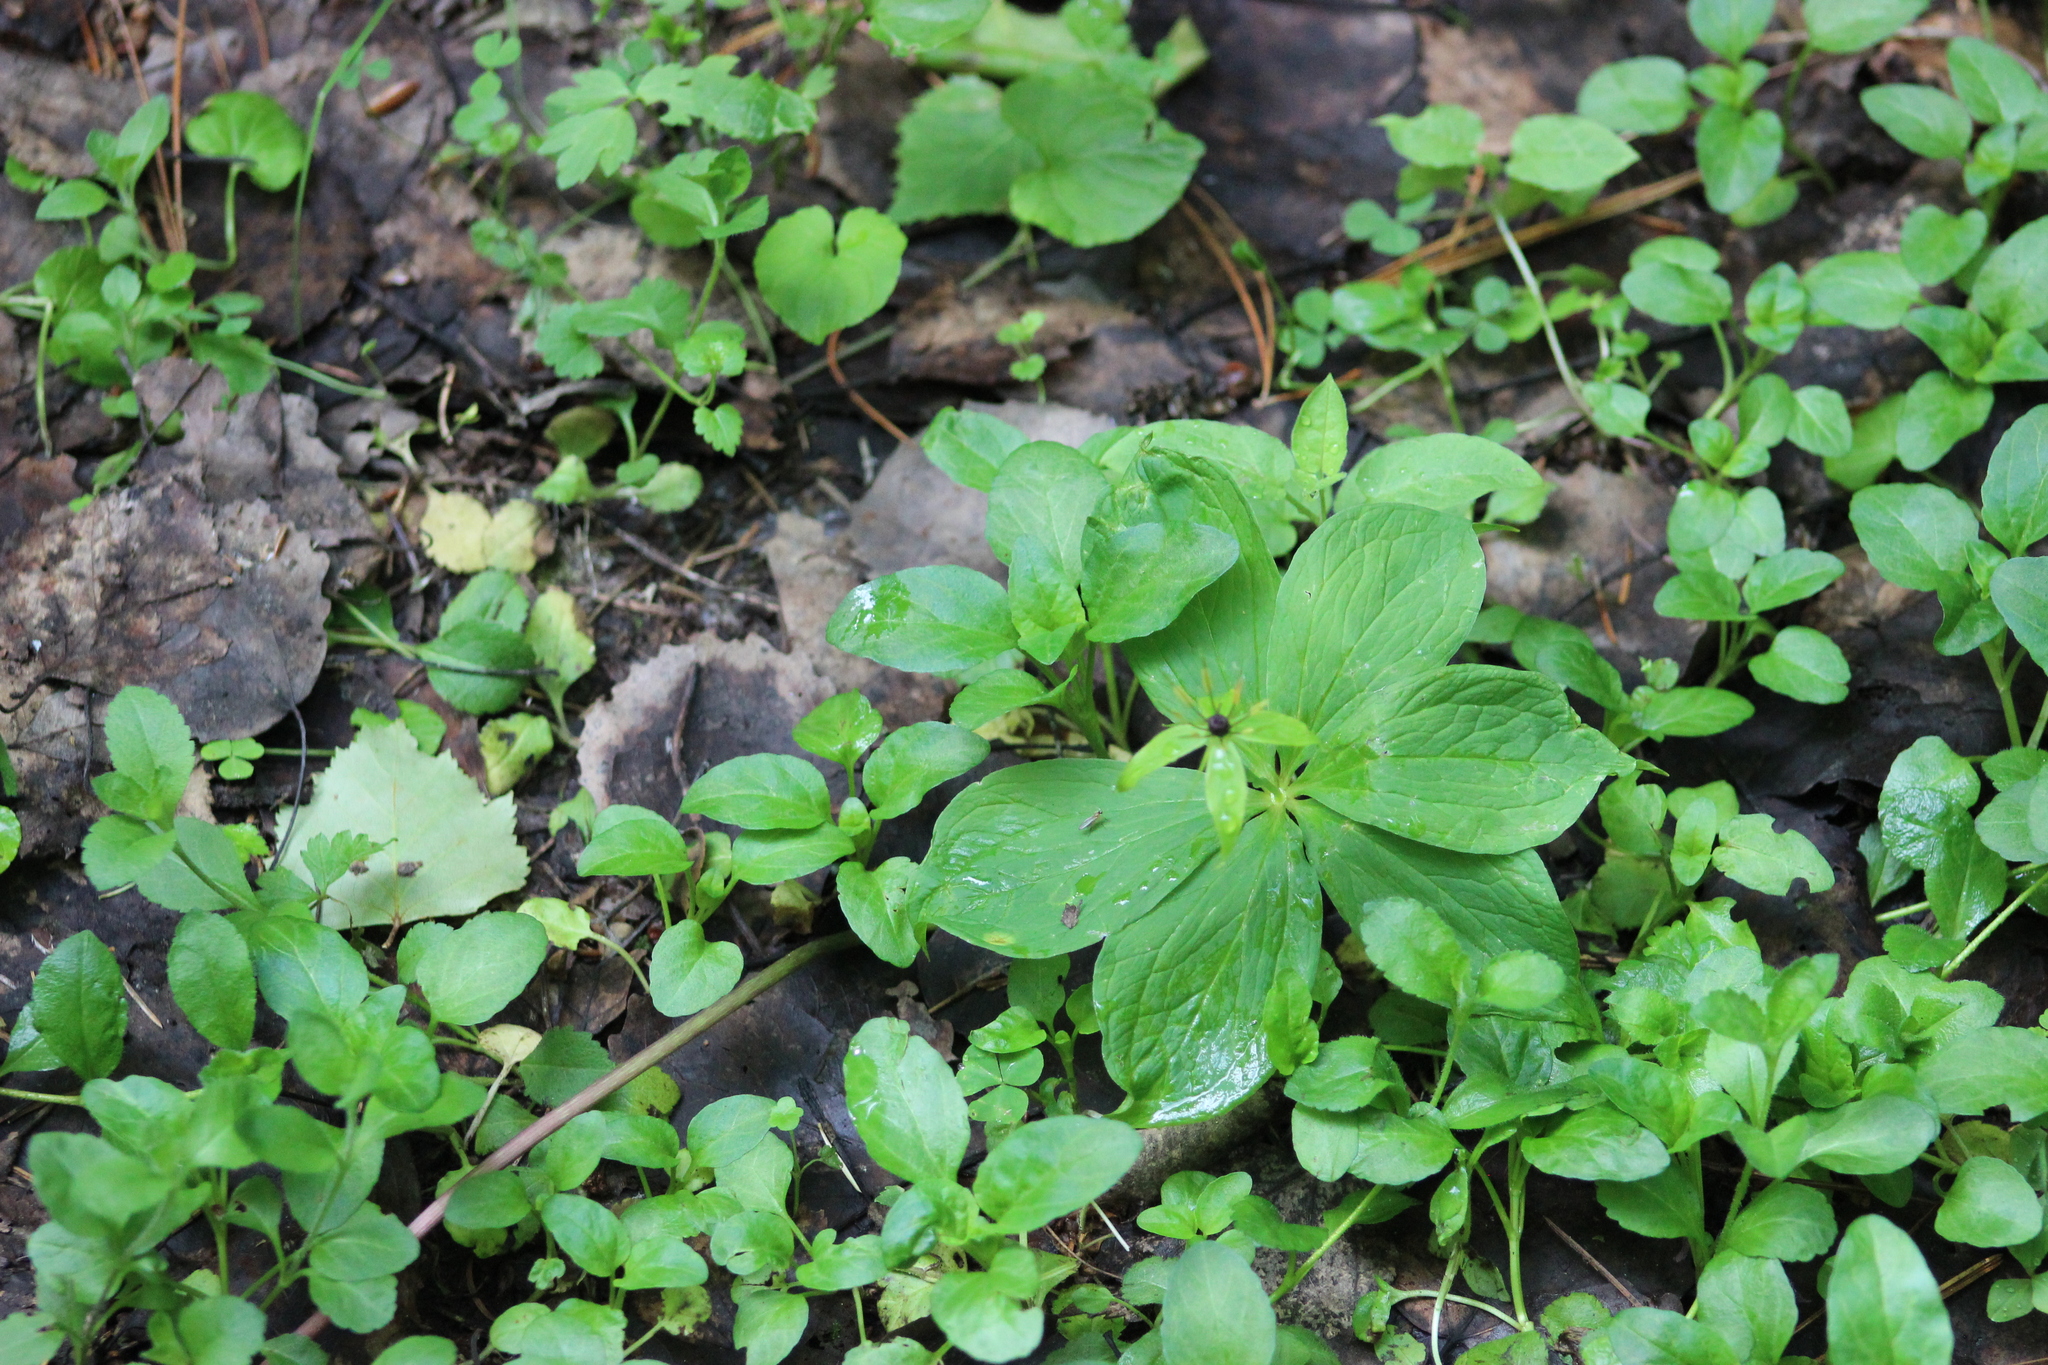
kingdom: Plantae
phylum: Tracheophyta
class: Liliopsida
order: Liliales
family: Melanthiaceae
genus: Paris
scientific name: Paris quadrifolia
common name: Herb-paris
